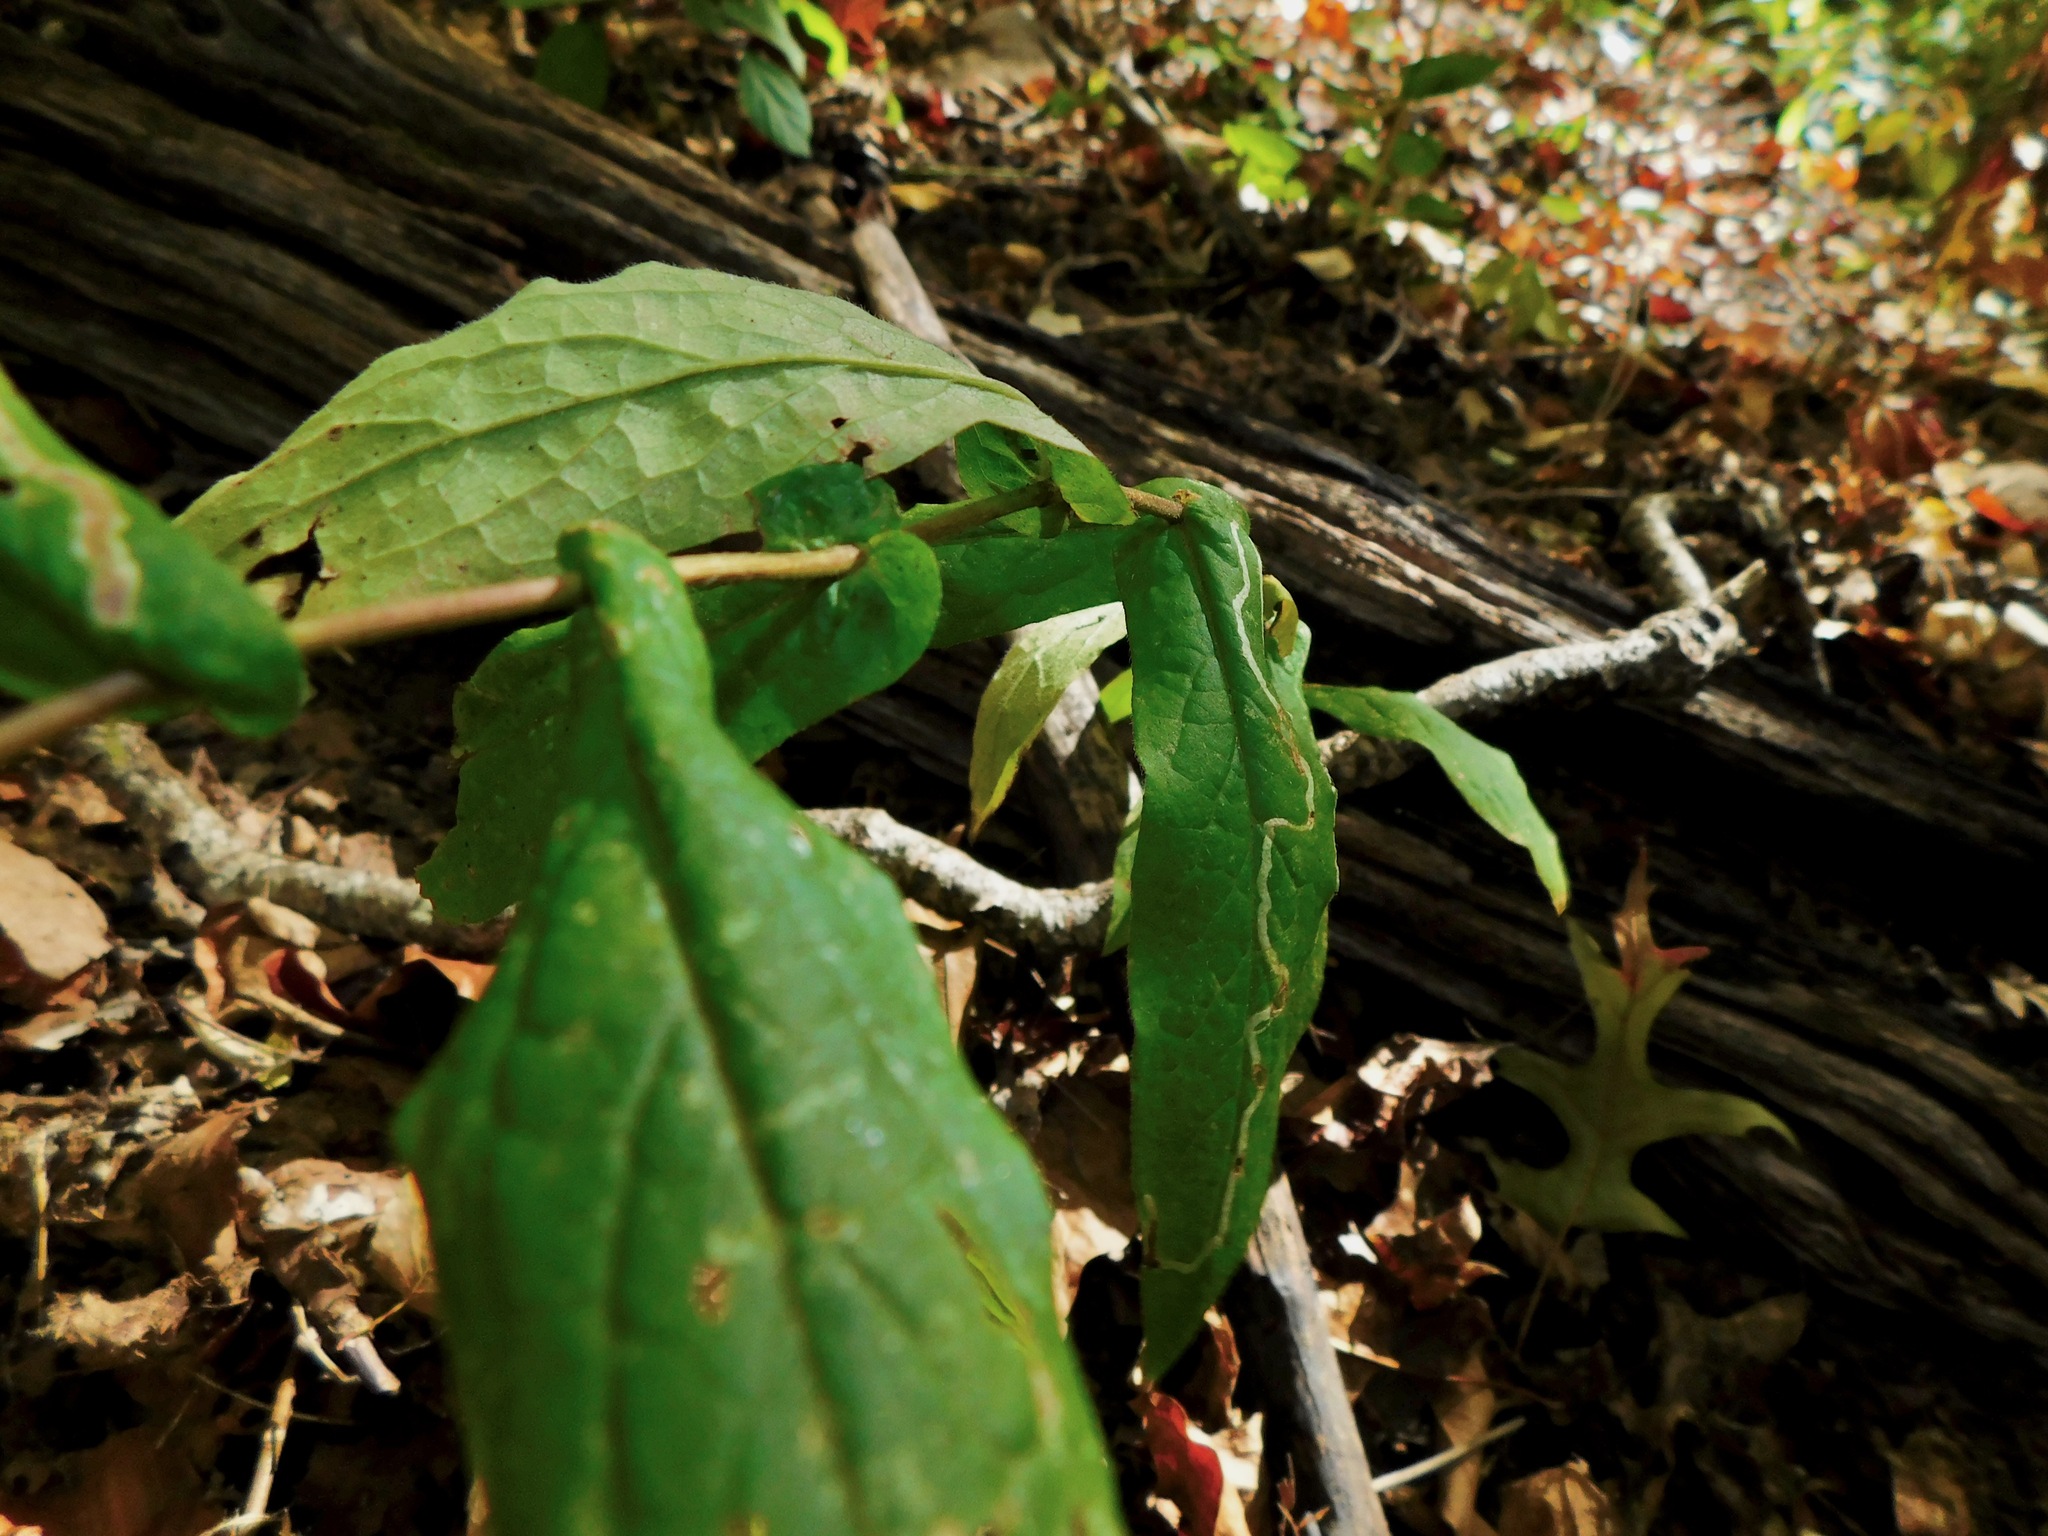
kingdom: Plantae
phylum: Tracheophyta
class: Magnoliopsida
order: Asterales
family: Asteraceae
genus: Symphyotrichum
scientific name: Symphyotrichum phlogifolium
